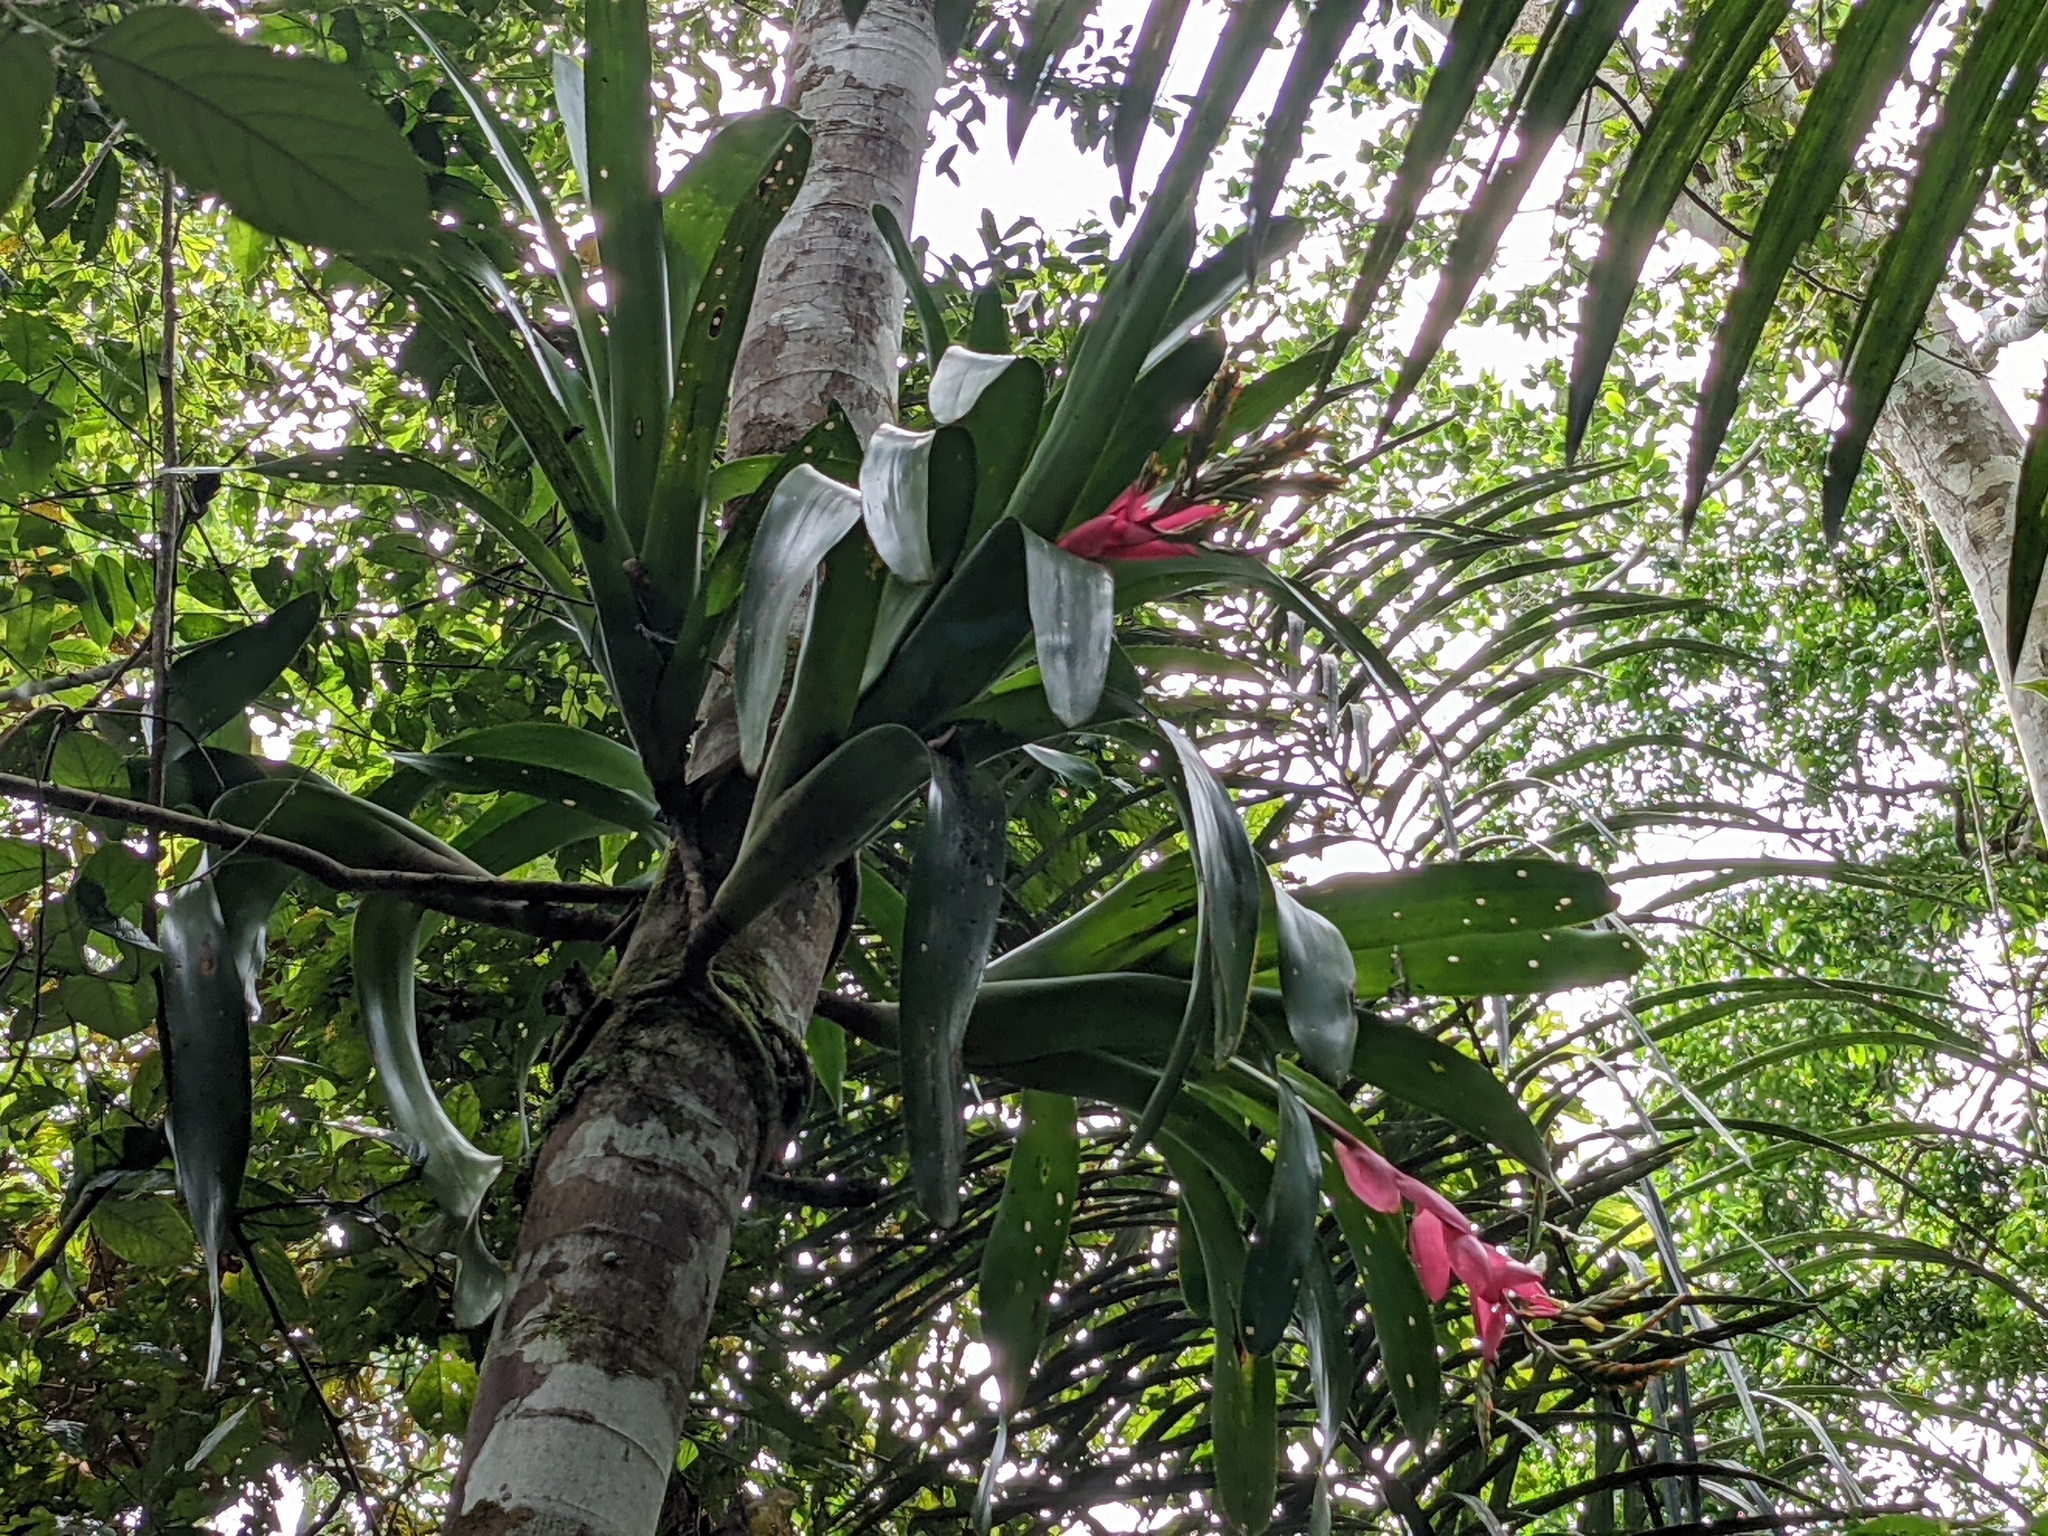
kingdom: Plantae
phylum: Tracheophyta
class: Liliopsida
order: Poales
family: Bromeliaceae
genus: Aechmea
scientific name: Aechmea moorei
